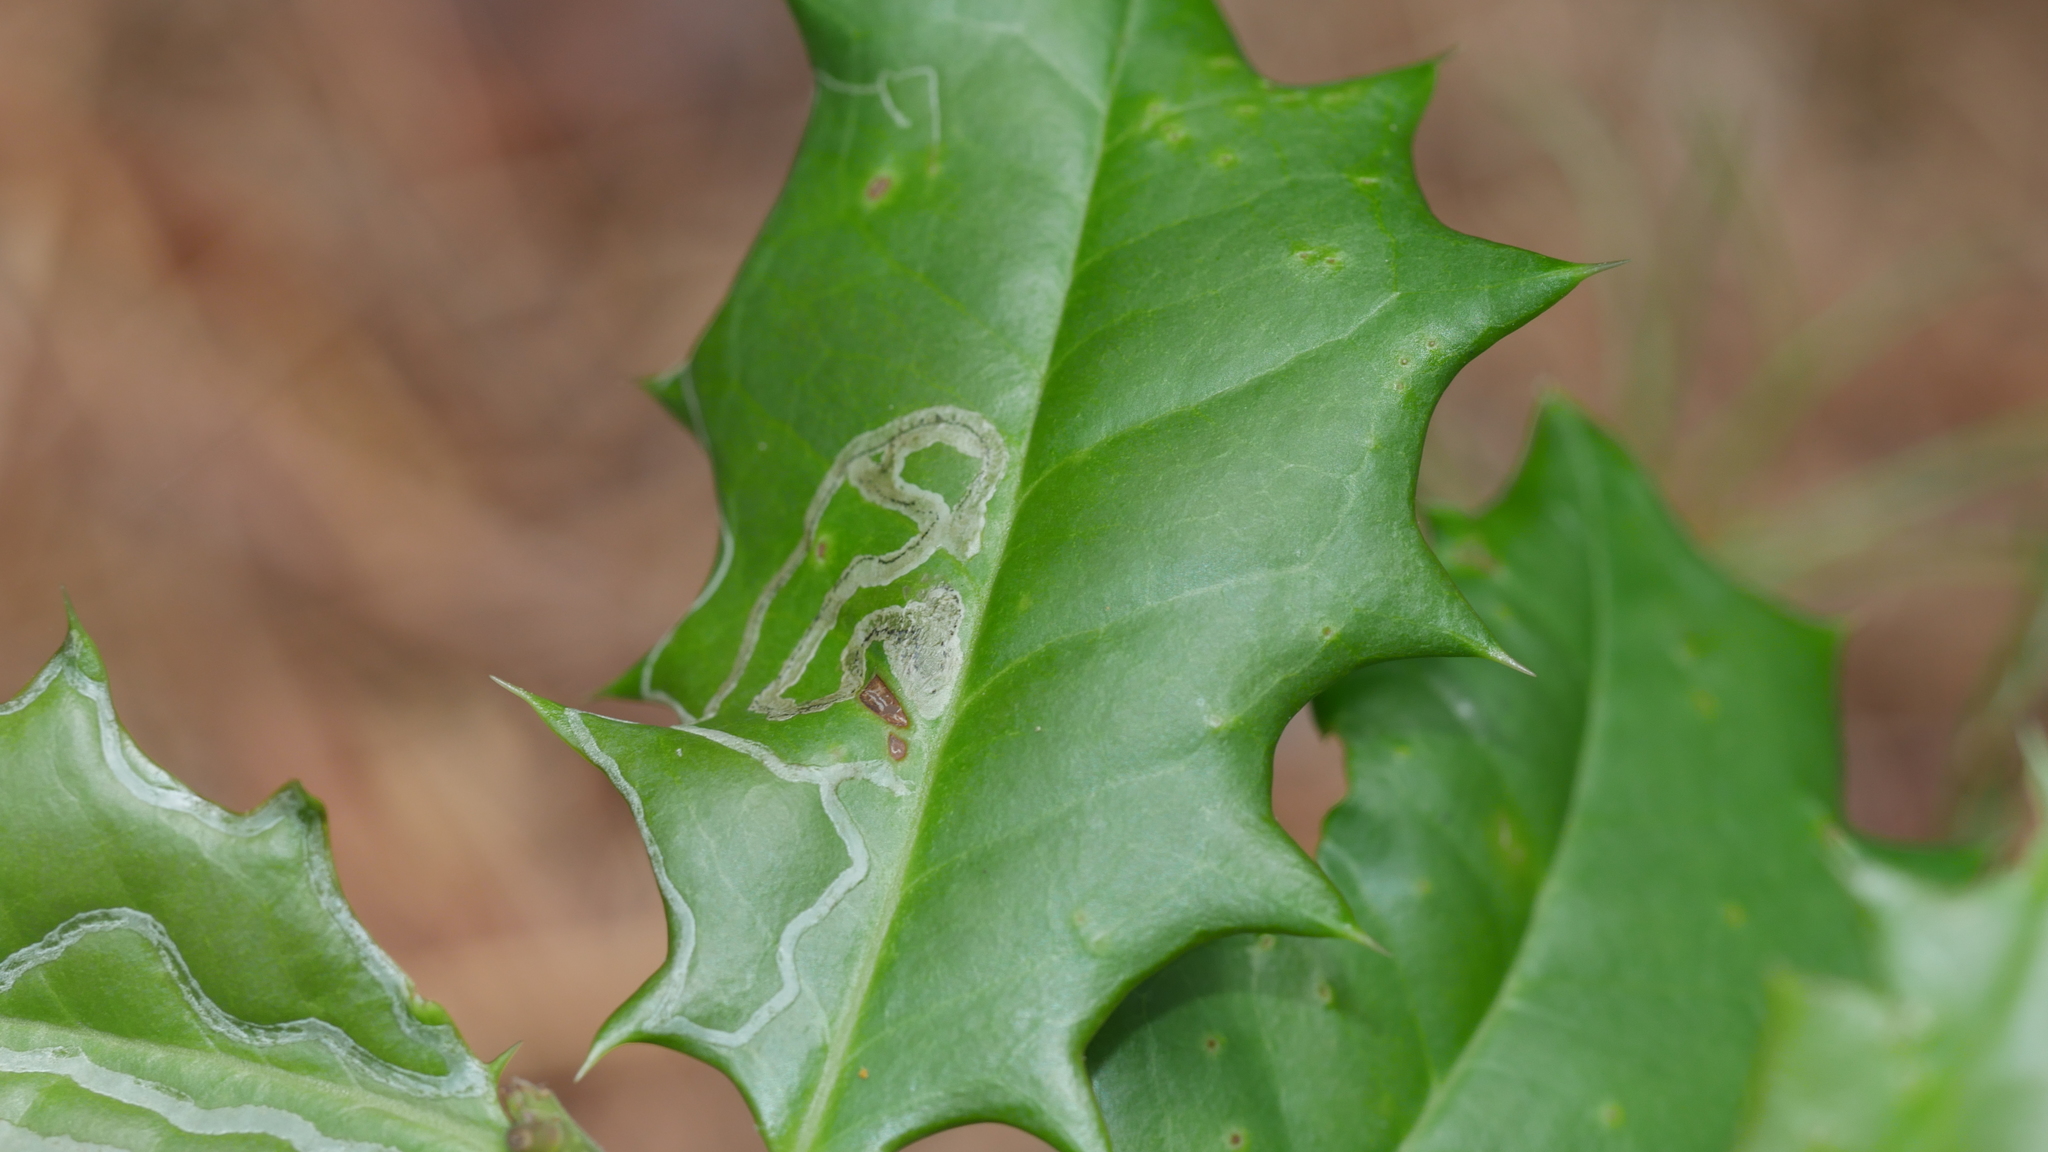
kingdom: Animalia
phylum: Arthropoda
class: Insecta
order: Diptera
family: Agromyzidae
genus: Phytomyza
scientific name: Phytomyza opacae
